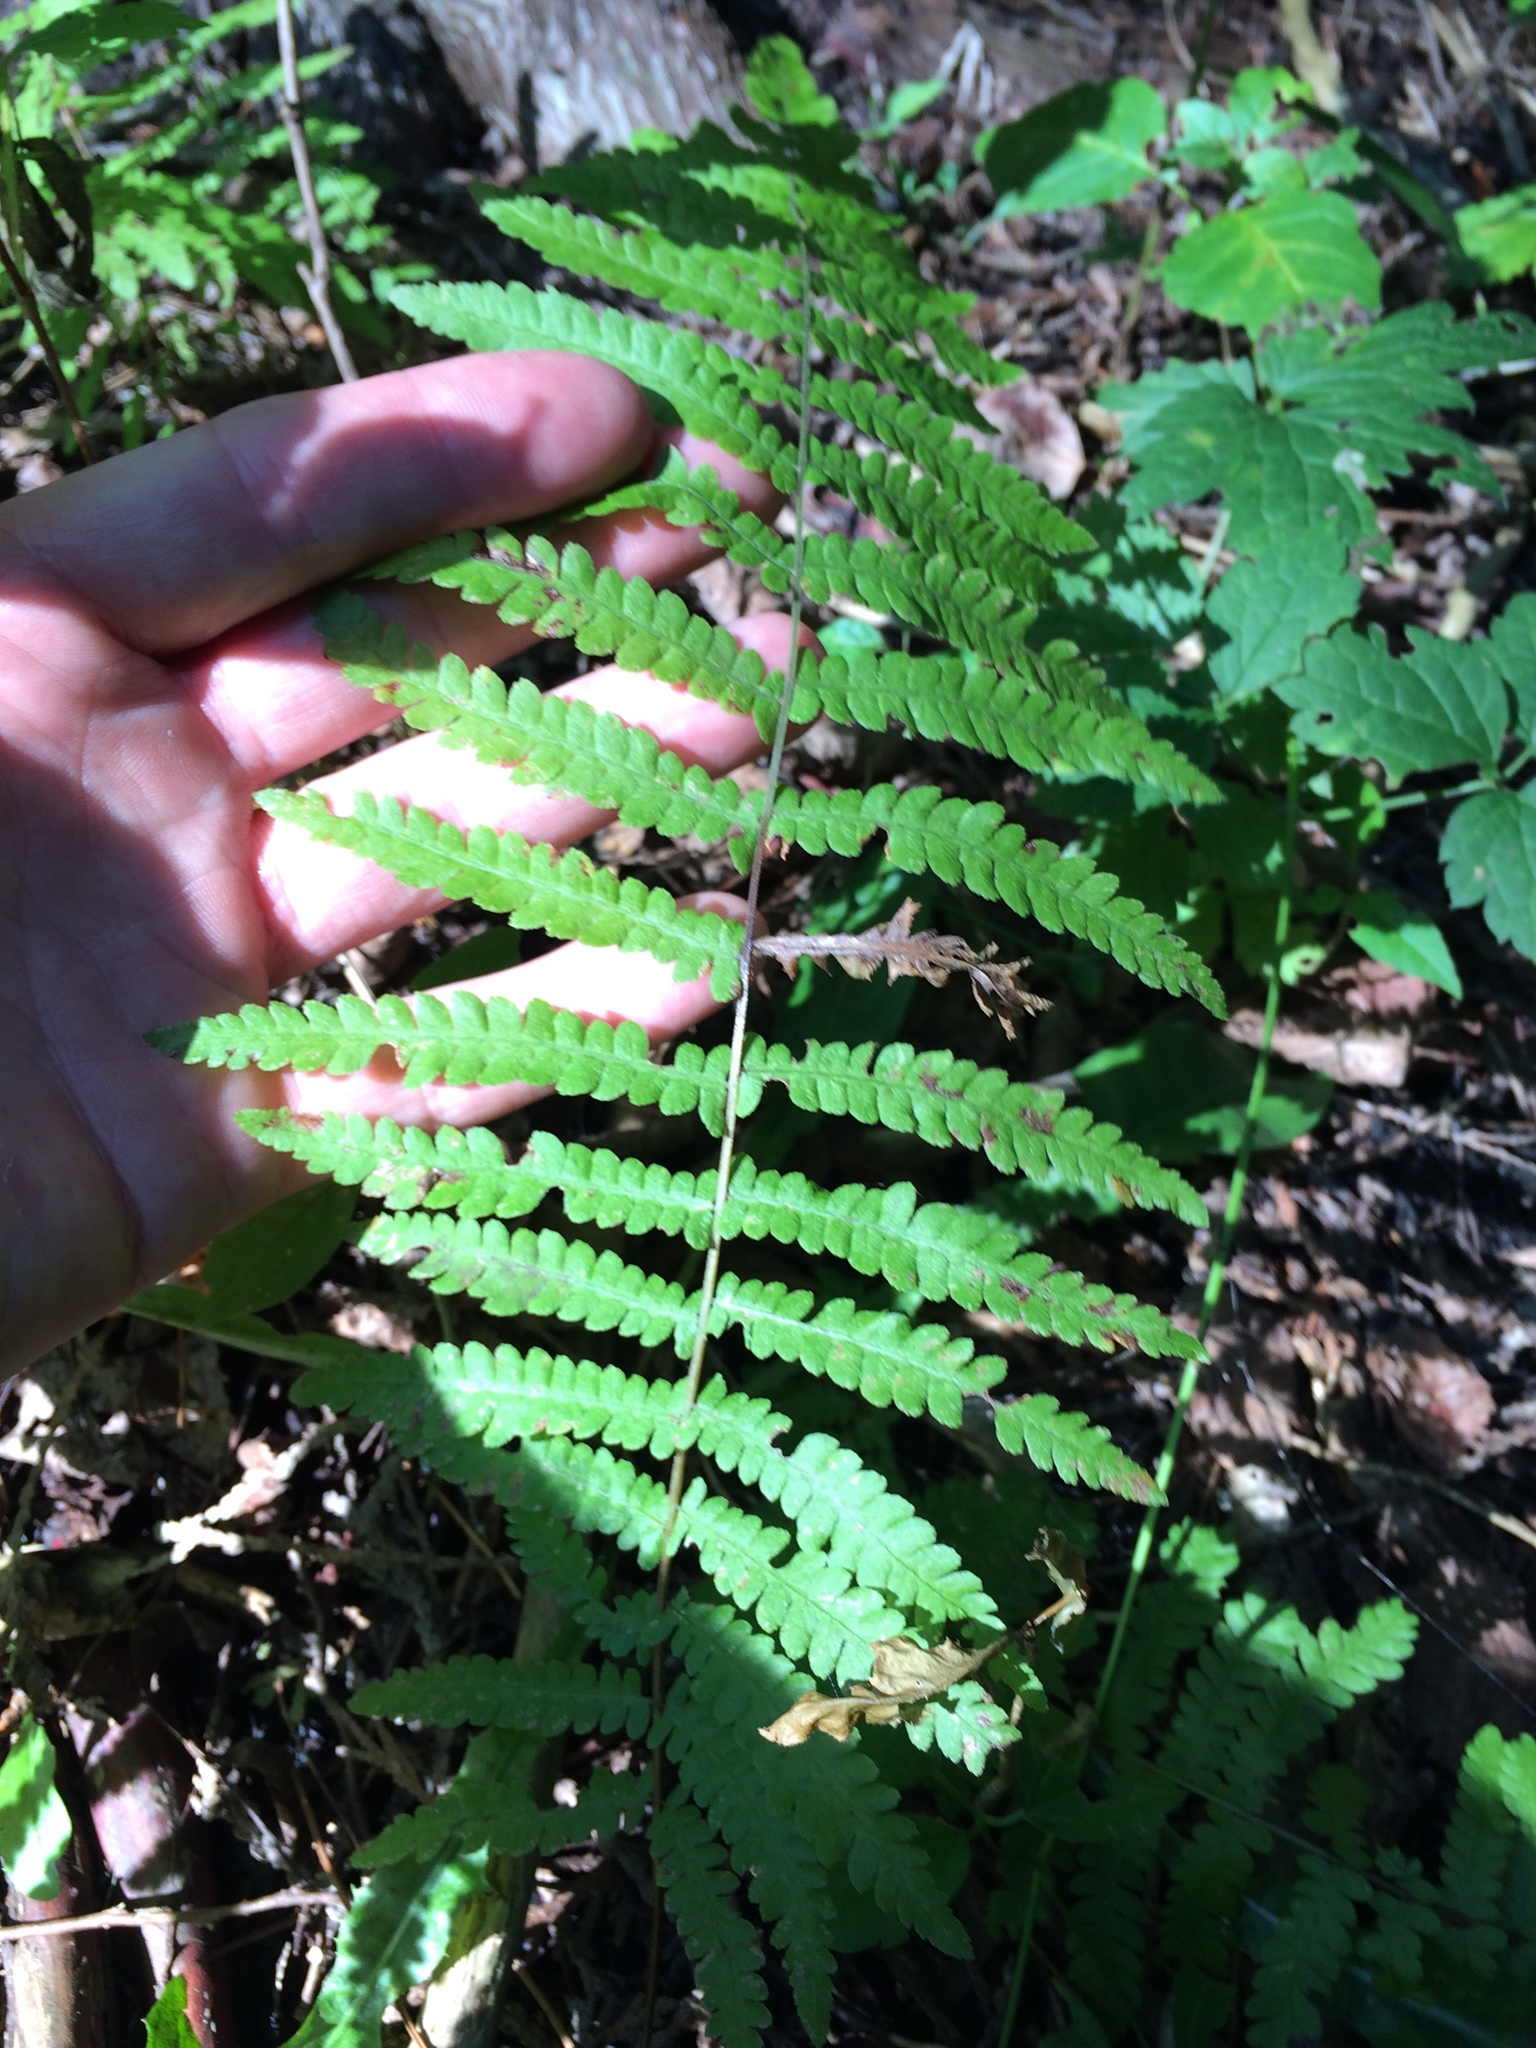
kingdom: Plantae
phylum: Tracheophyta
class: Polypodiopsida
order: Polypodiales
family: Thelypteridaceae
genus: Thelypteris
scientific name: Thelypteris palustris
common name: Marsh fern
